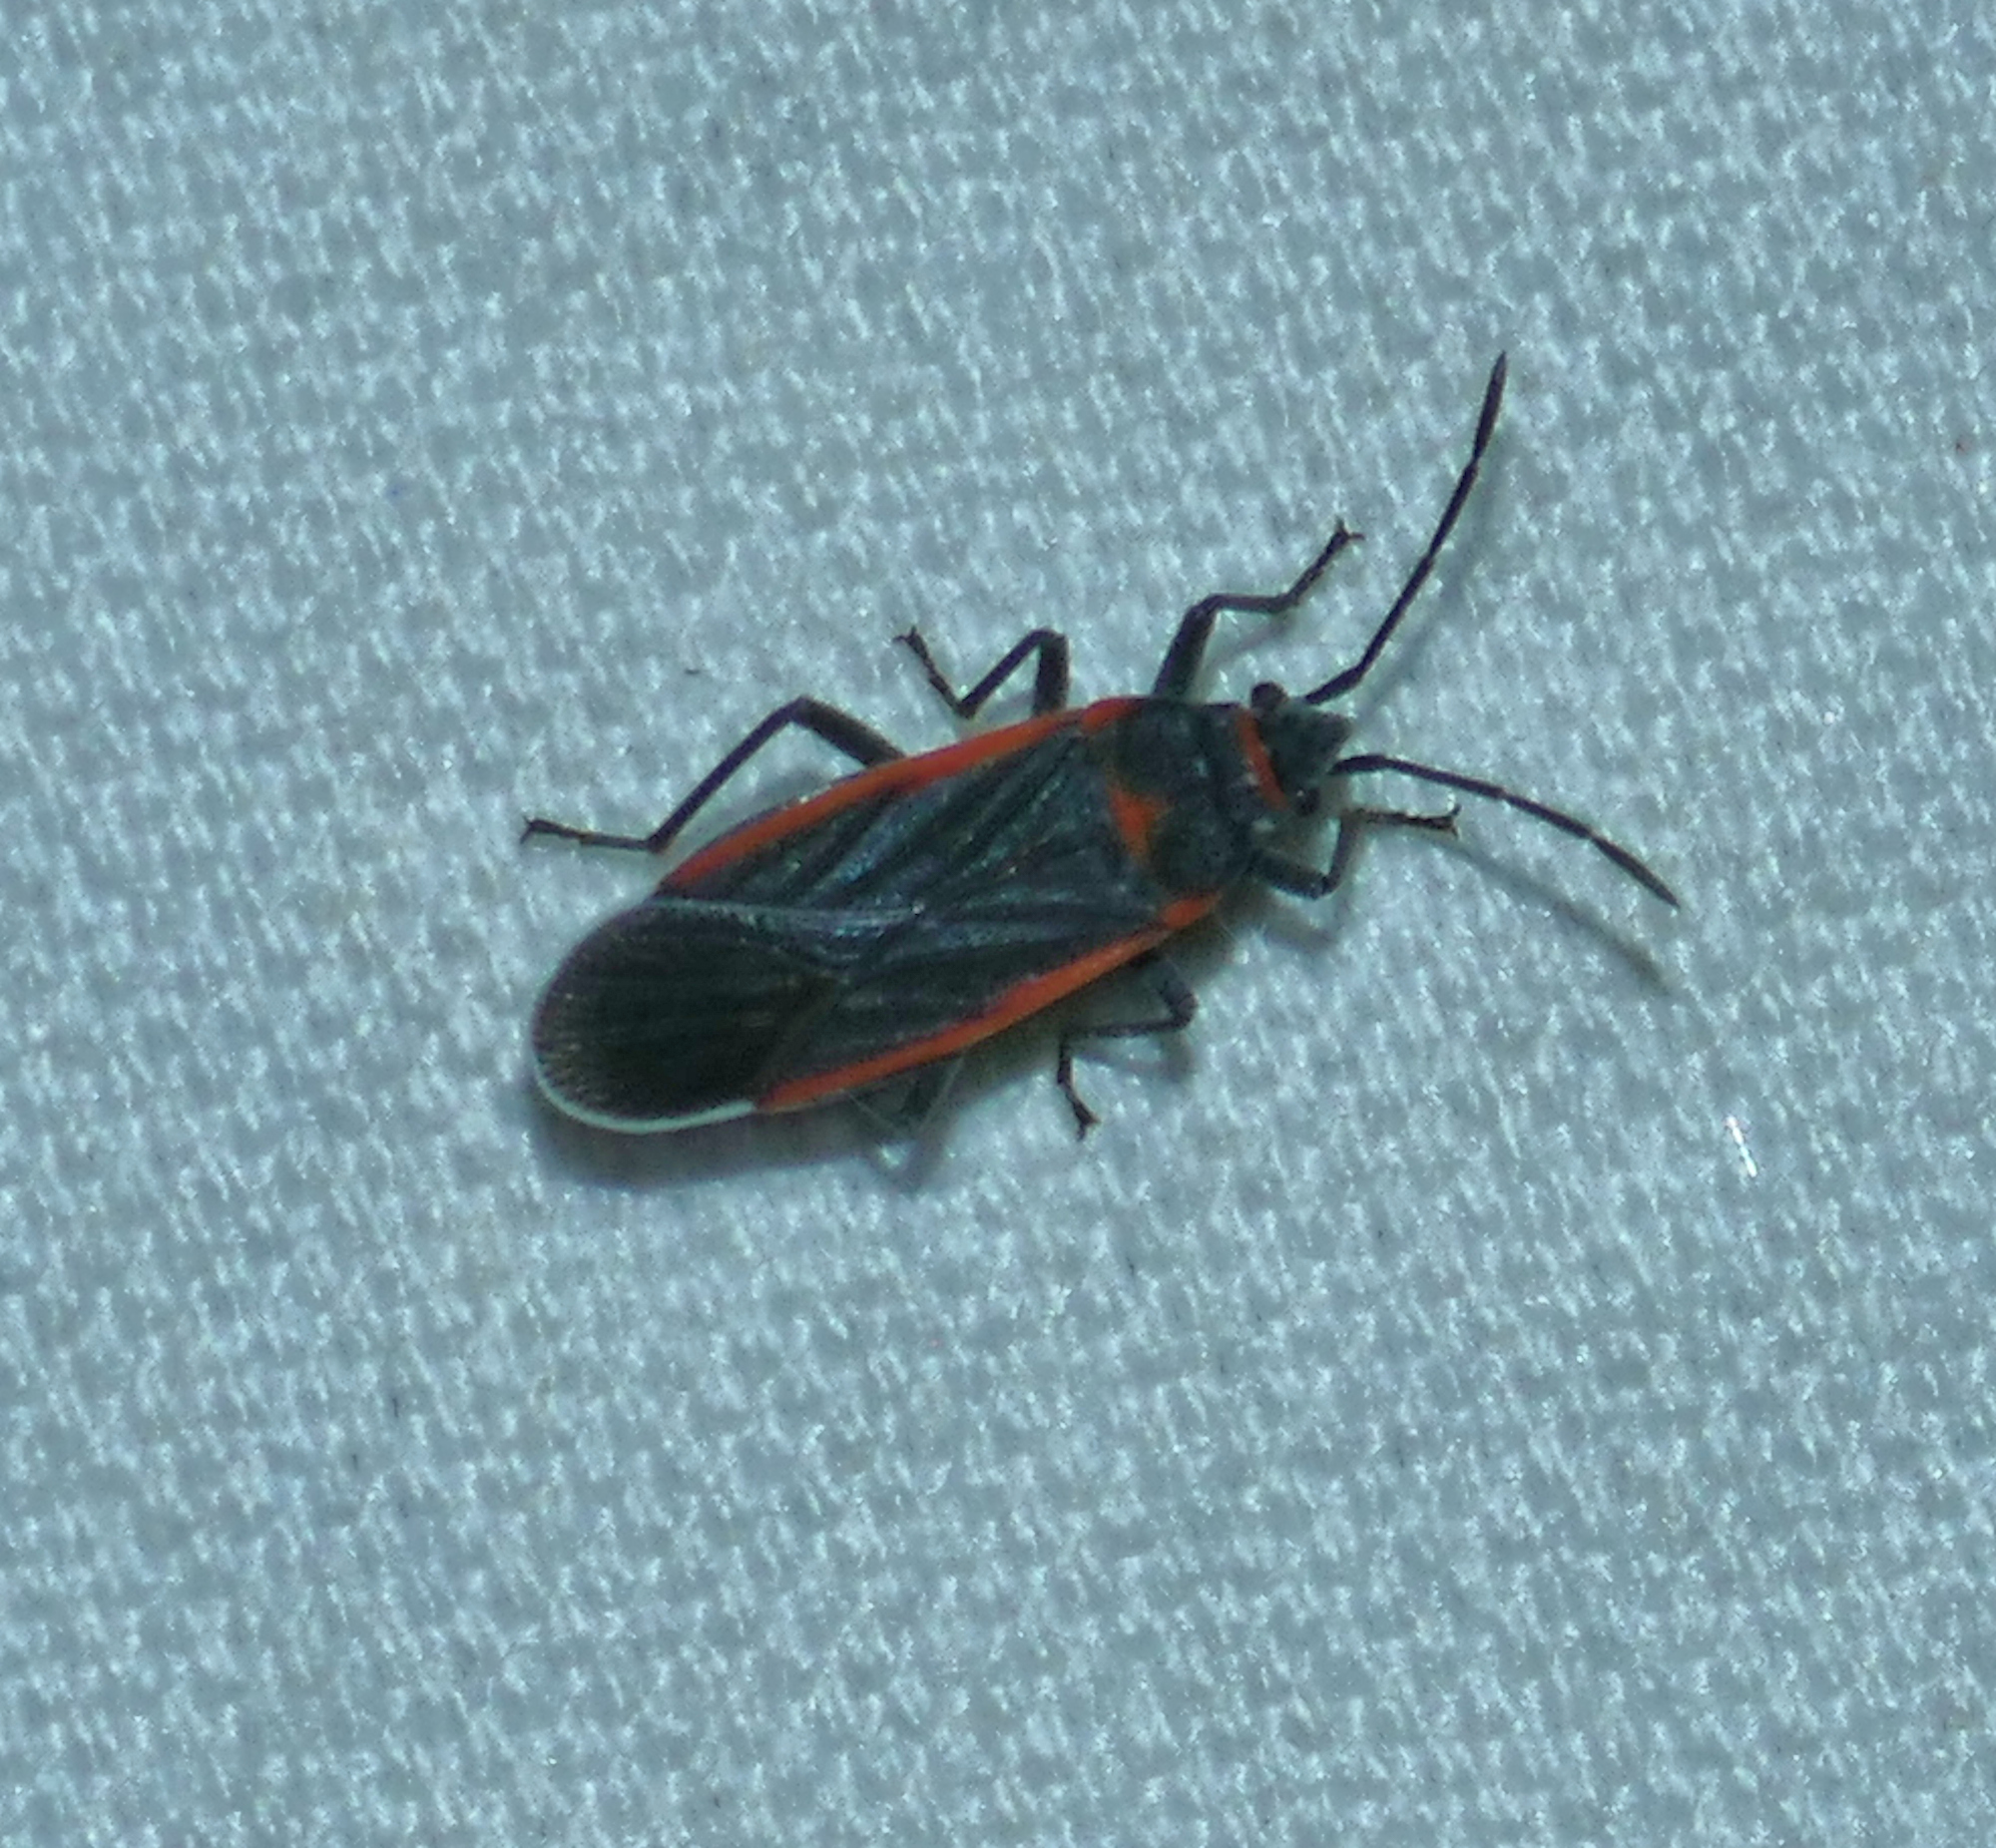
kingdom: Animalia
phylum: Arthropoda
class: Insecta
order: Hemiptera
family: Lygaeidae
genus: Melacoryphus
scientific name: Melacoryphus lateralis
